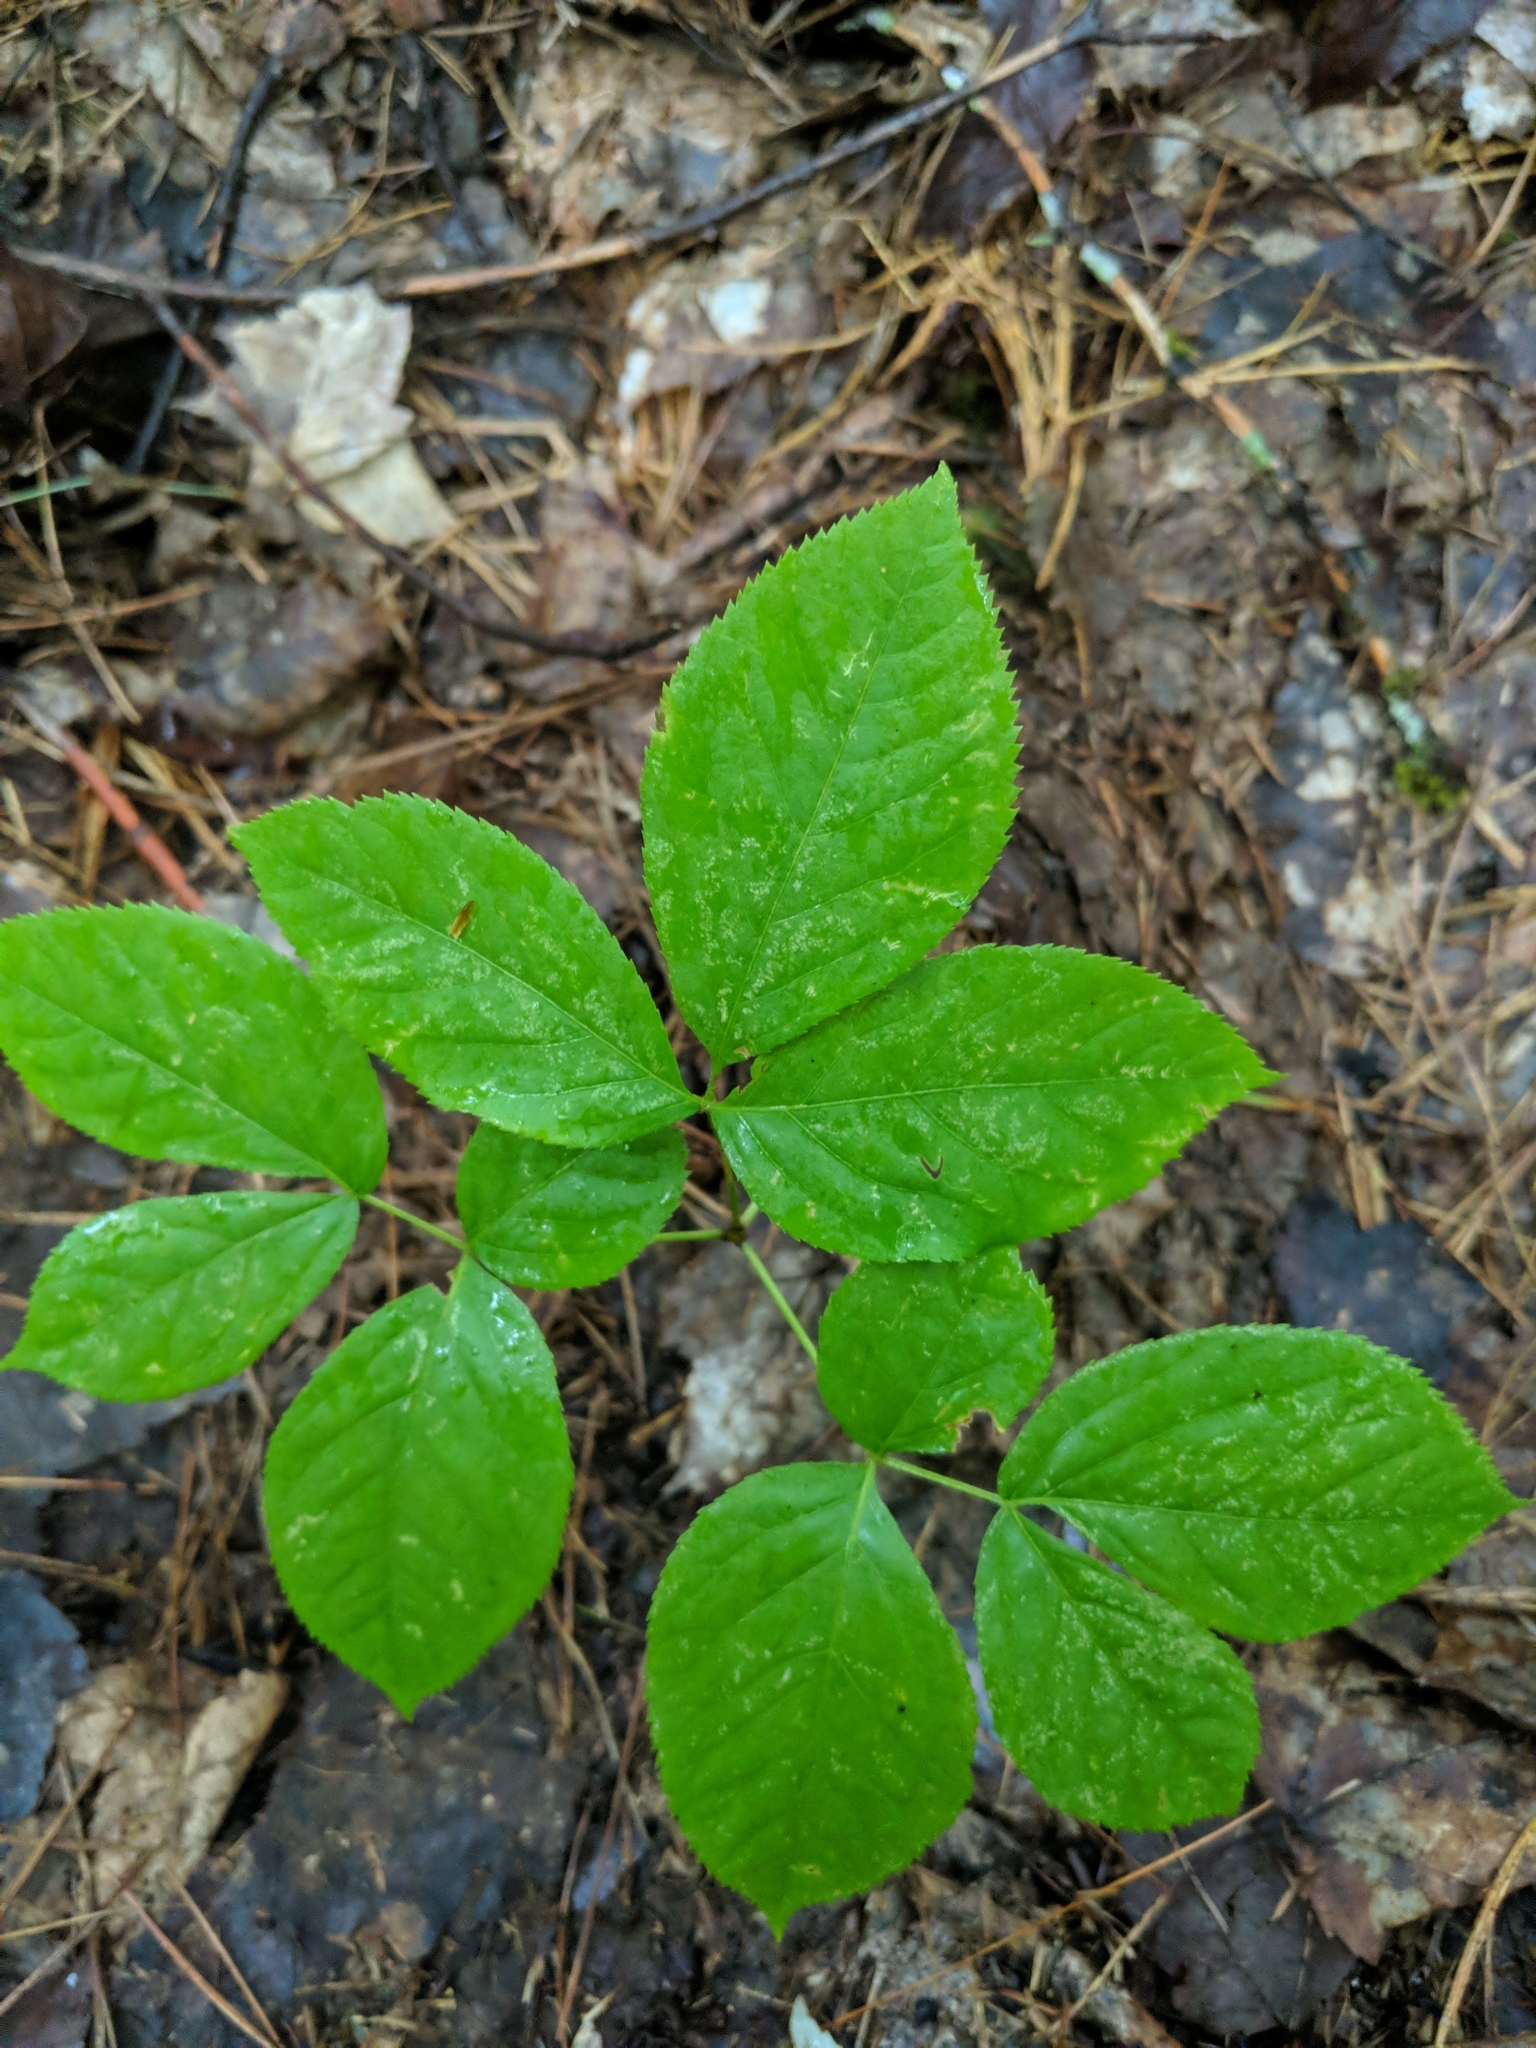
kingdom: Plantae
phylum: Tracheophyta
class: Magnoliopsida
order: Apiales
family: Araliaceae
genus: Aralia
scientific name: Aralia nudicaulis
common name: Wild sarsaparilla
